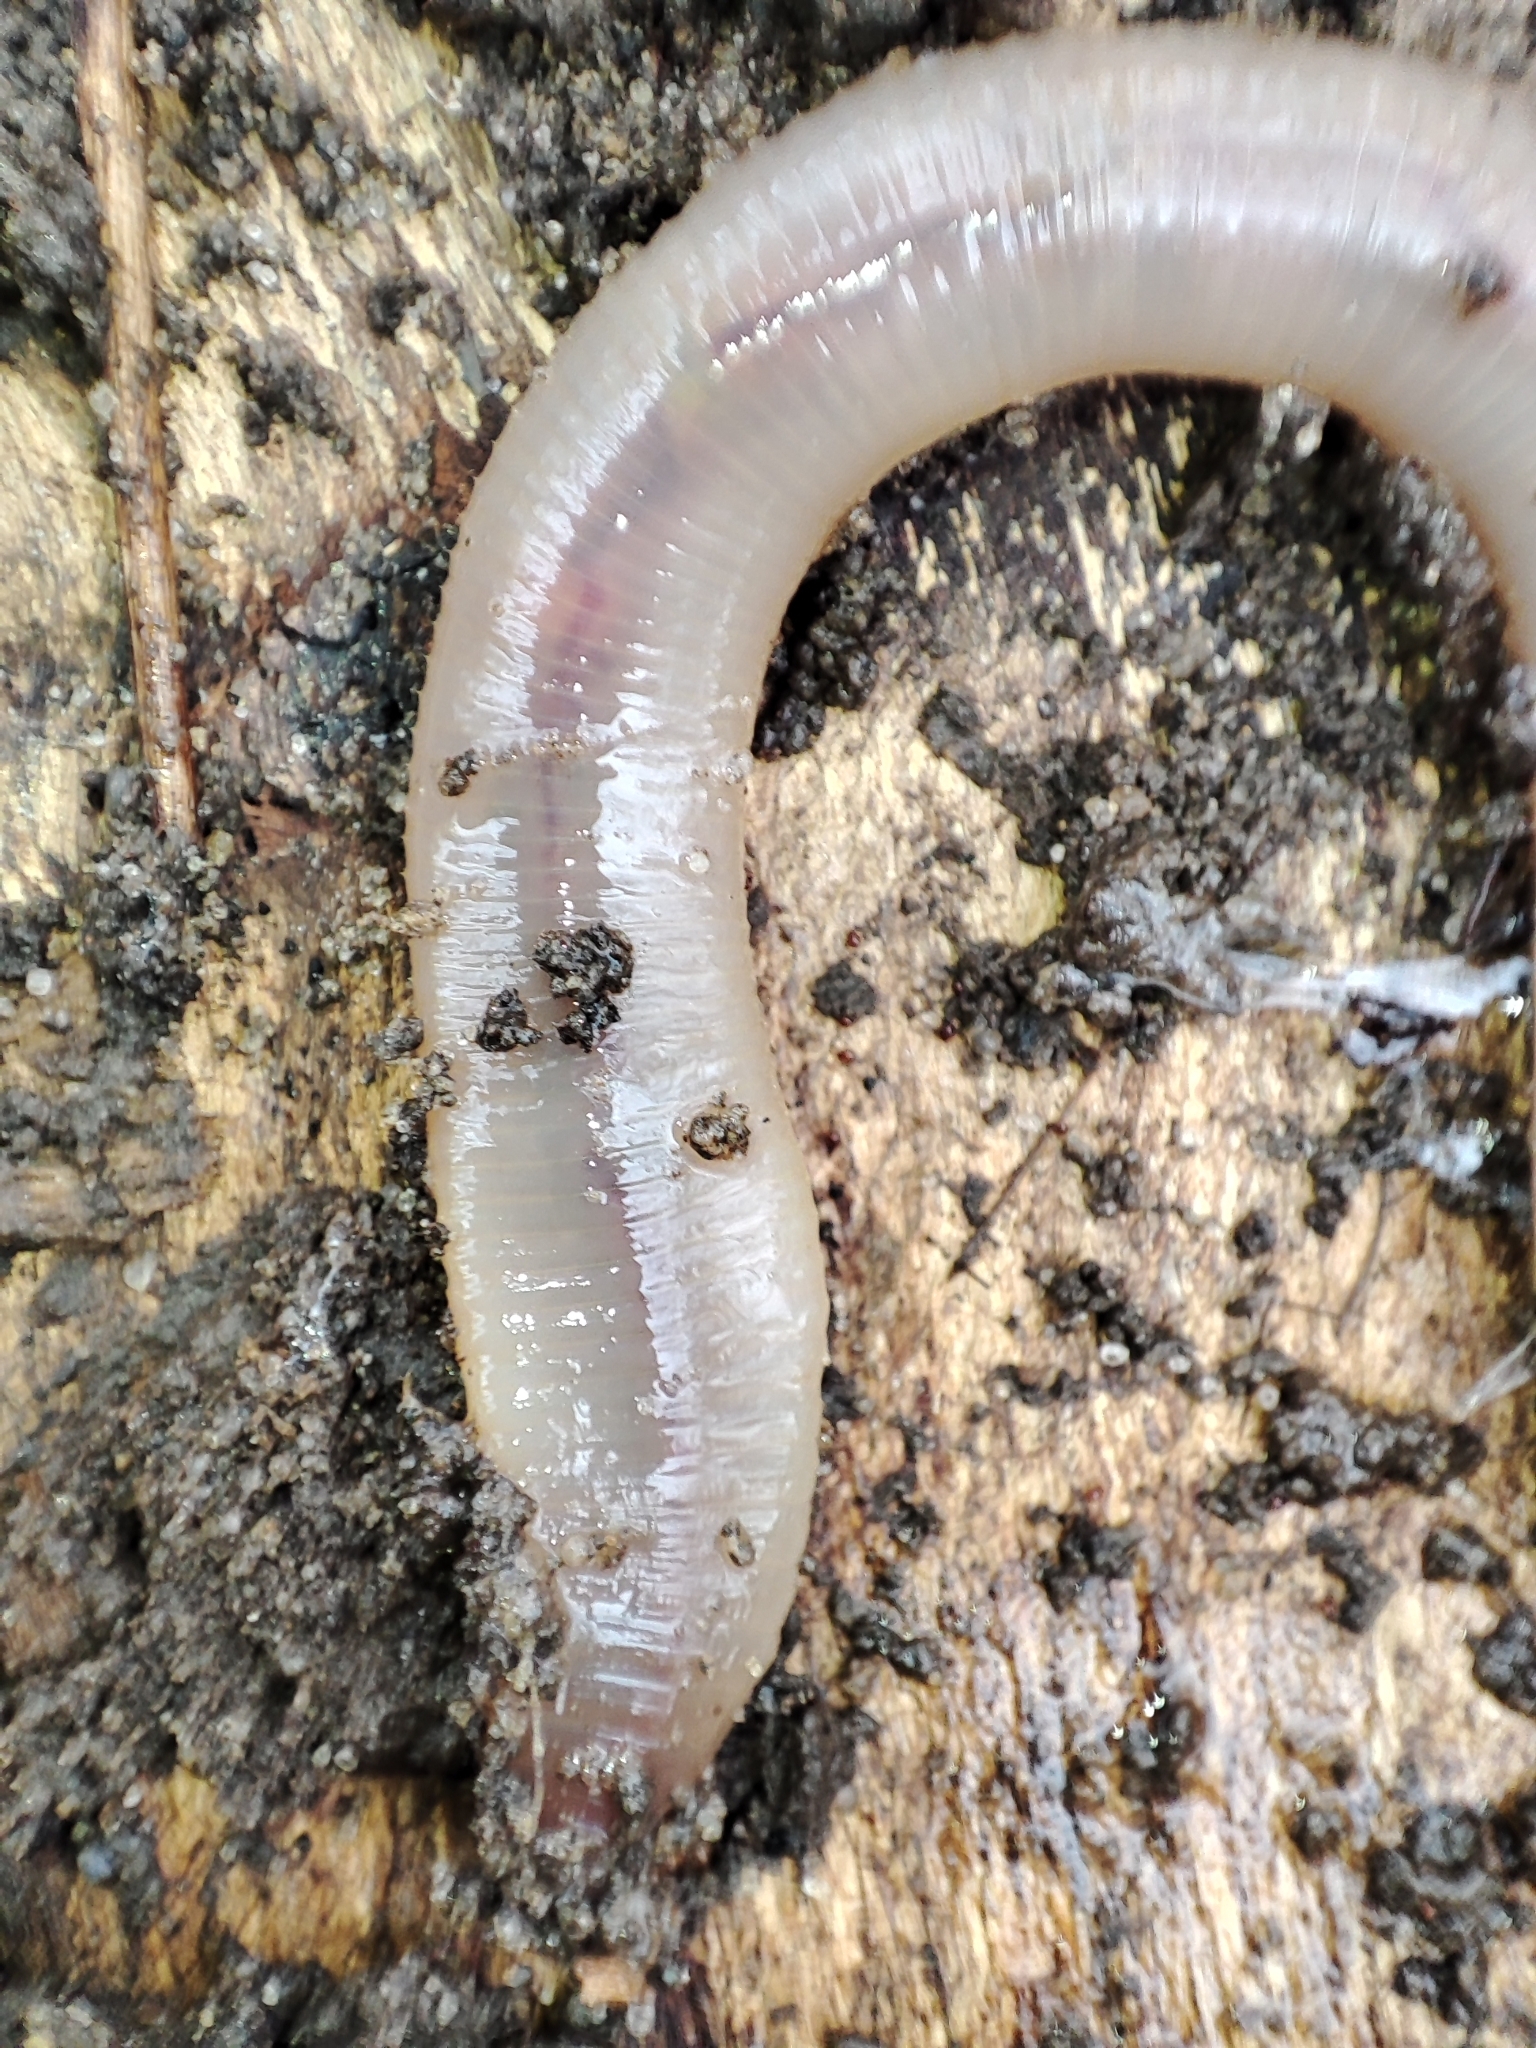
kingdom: Animalia
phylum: Annelida
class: Clitellata
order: Crassiclitellata
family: Lumbricidae
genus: Lumbricus
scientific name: Lumbricus terrestris
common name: Common earthworm
